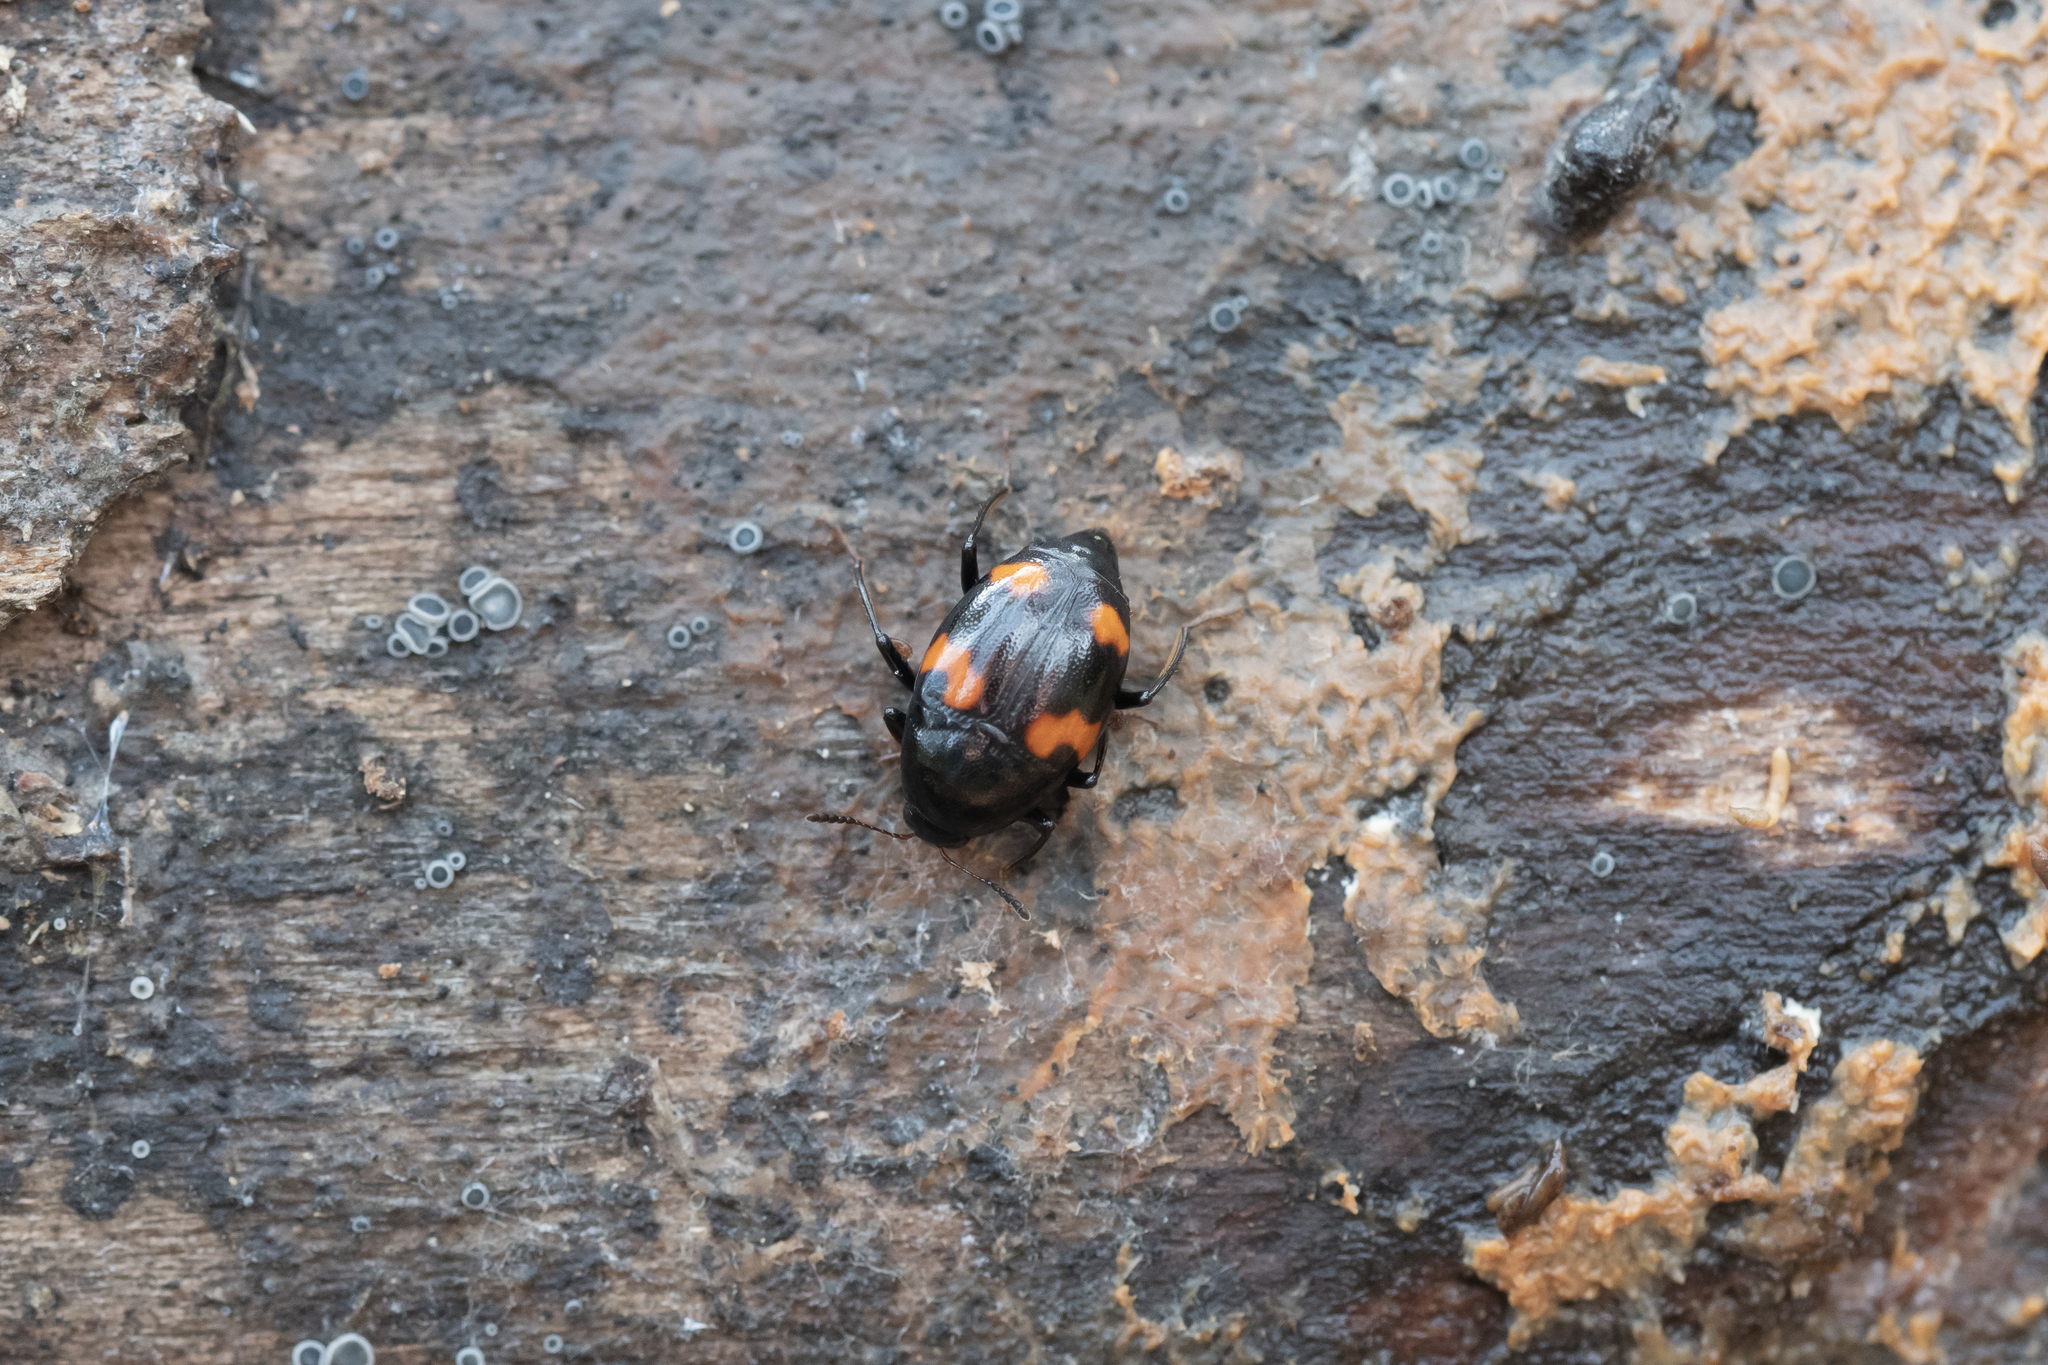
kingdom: Animalia
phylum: Arthropoda
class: Insecta
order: Coleoptera
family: Staphylinidae
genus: Scaphidium
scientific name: Scaphidium quadrimaculatum
